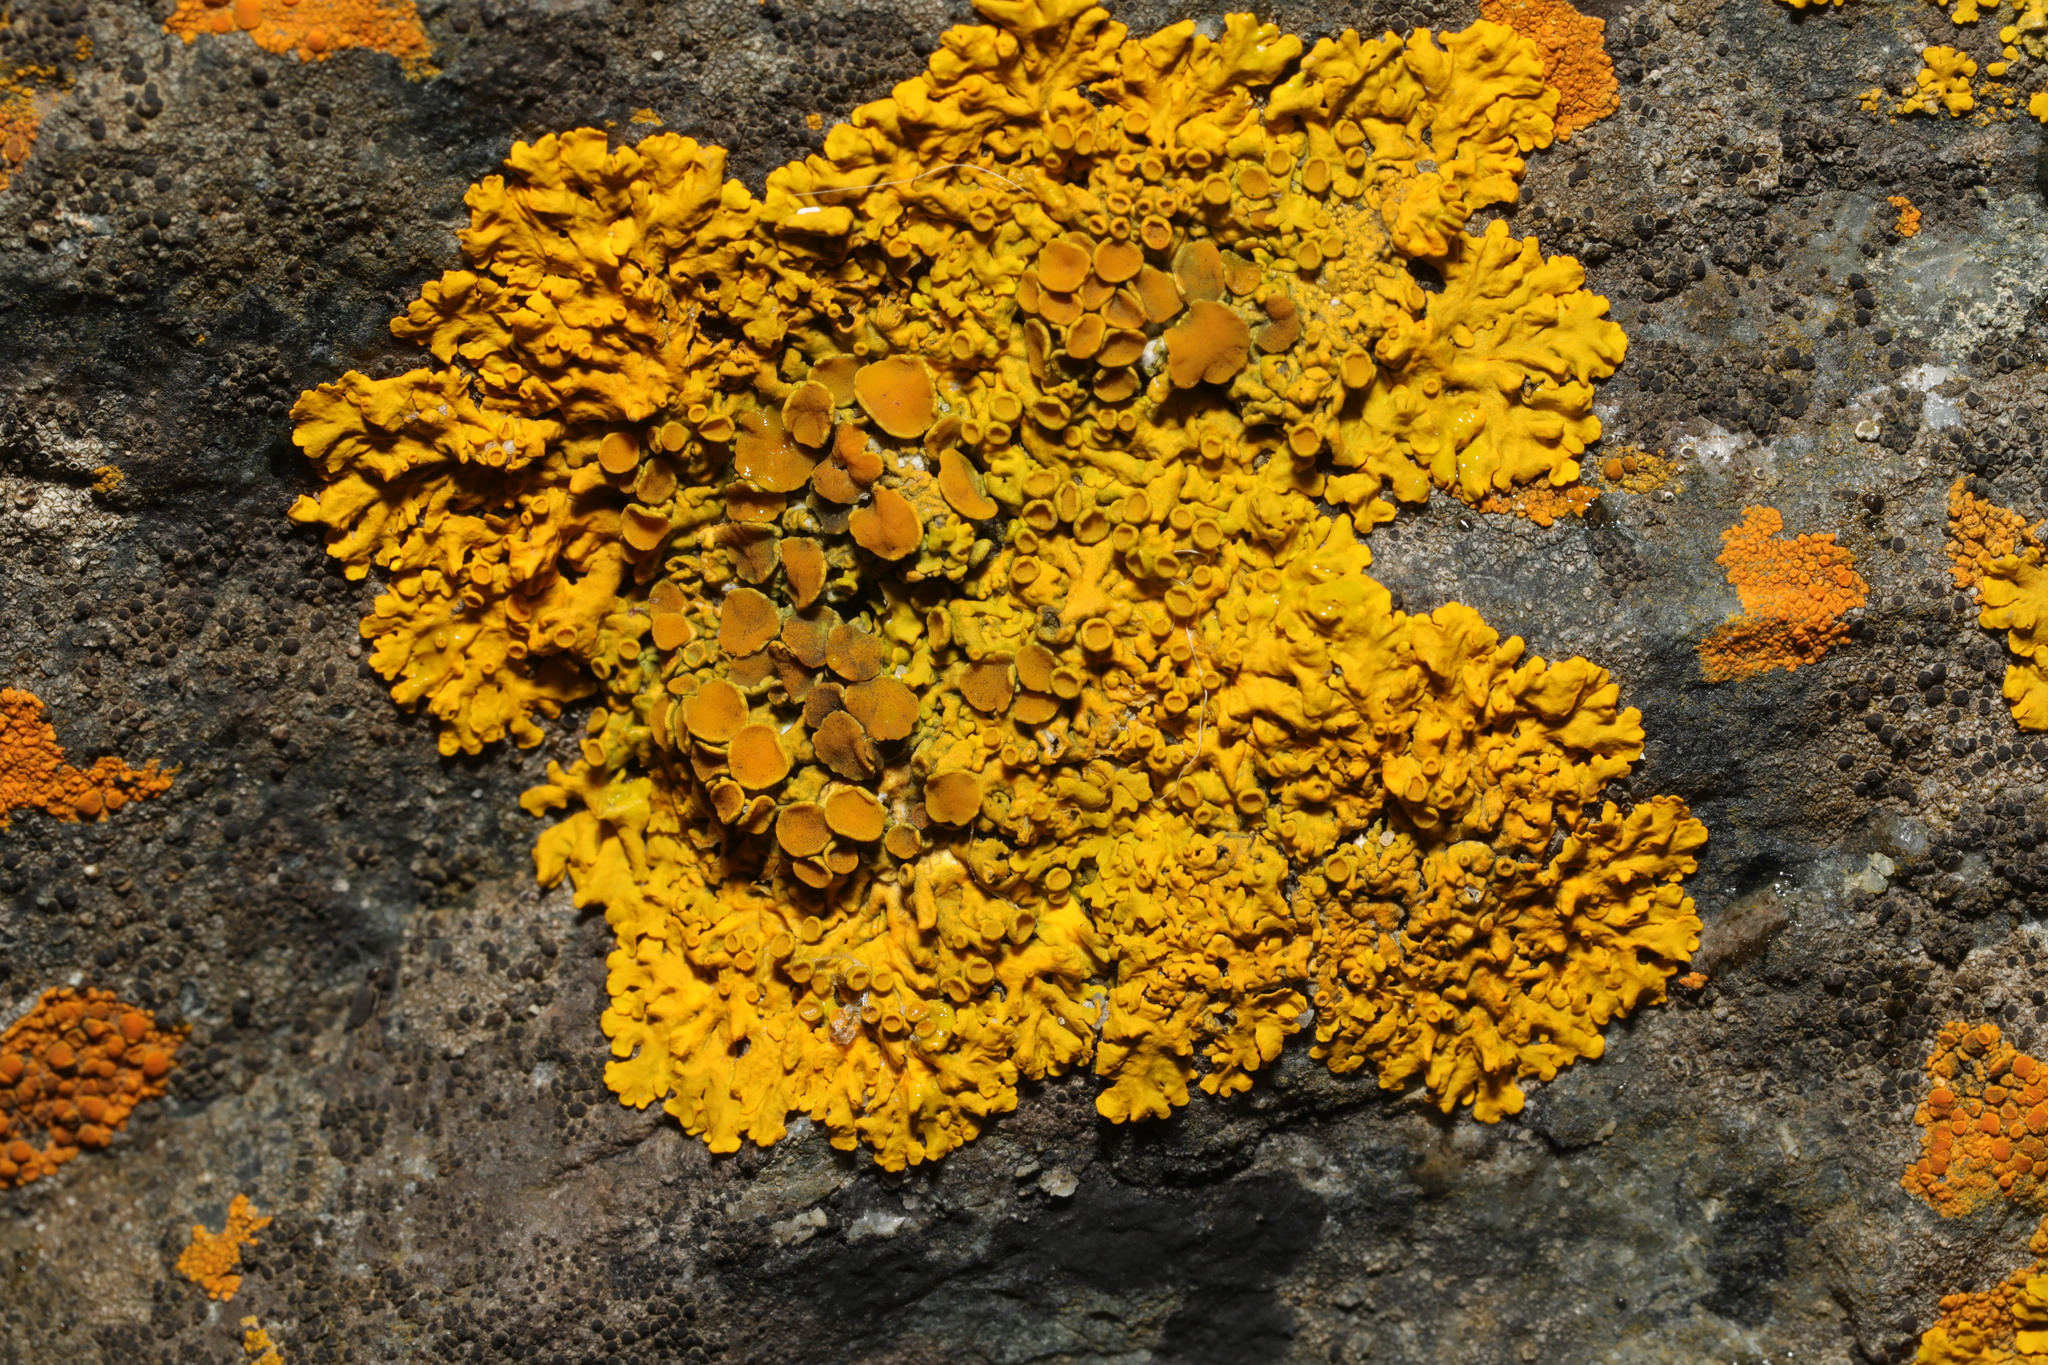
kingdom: Fungi
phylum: Ascomycota
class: Lecanoromycetes
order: Teloschistales
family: Teloschistaceae
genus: Xanthoria
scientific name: Xanthoria parietina
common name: Common orange lichen
